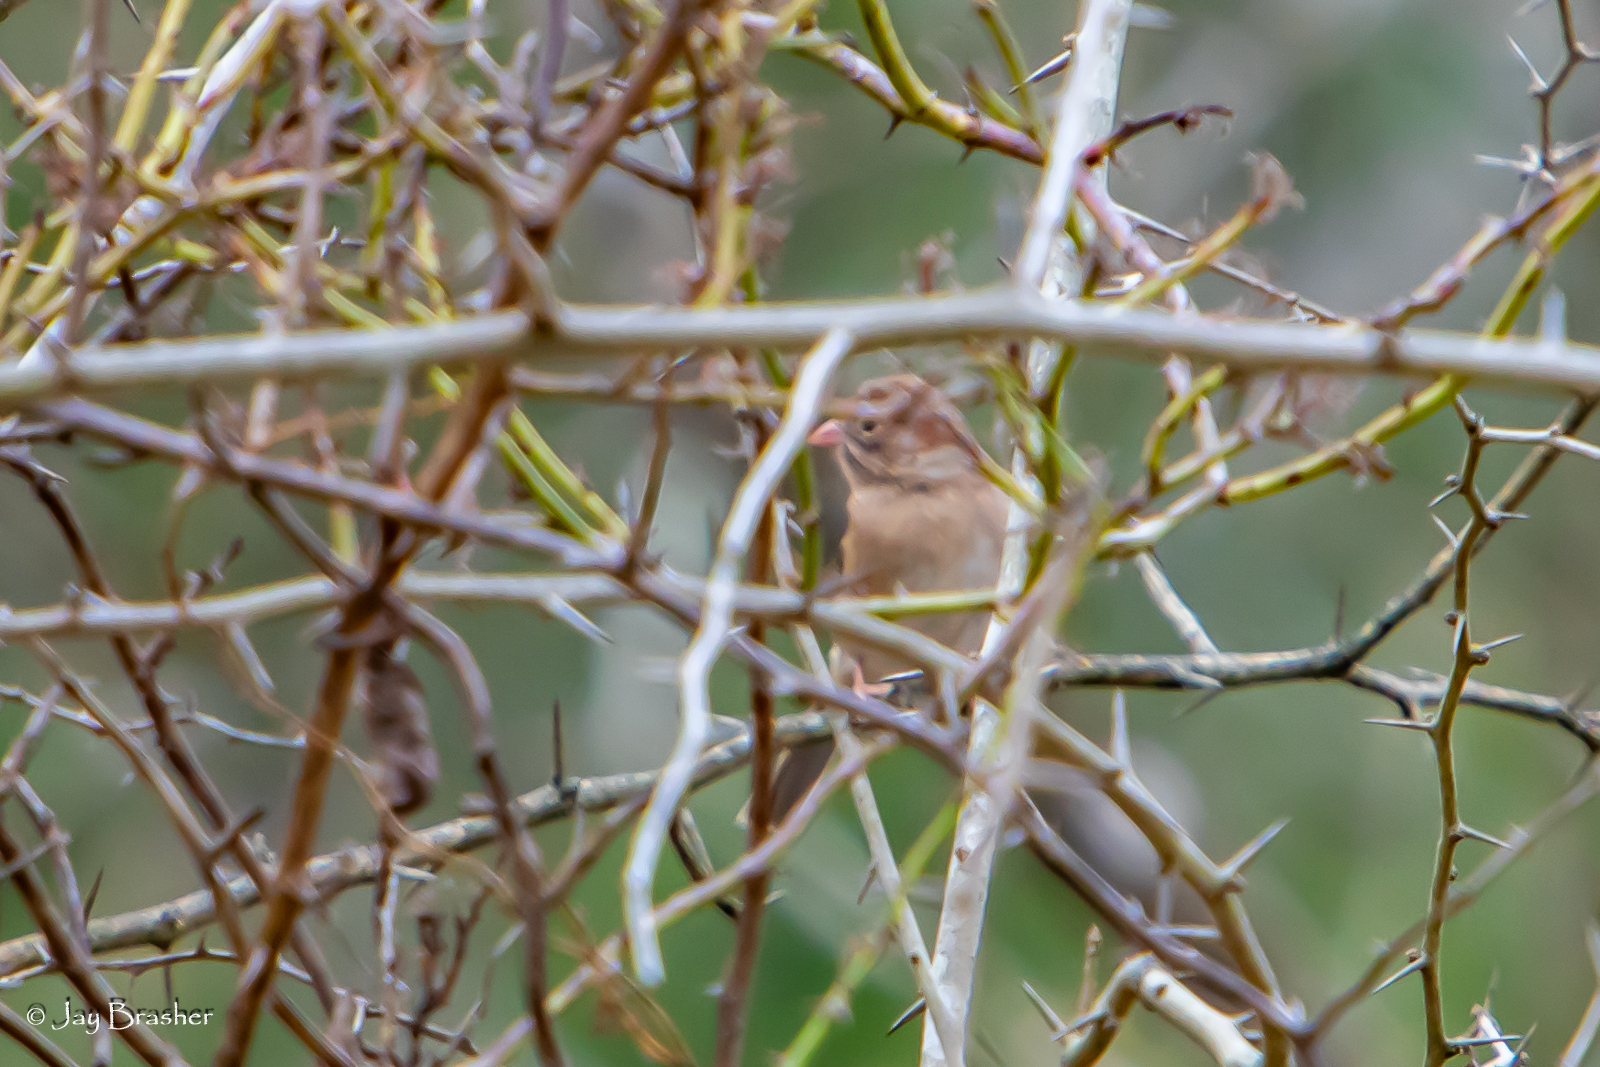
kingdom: Animalia
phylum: Chordata
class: Aves
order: Passeriformes
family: Passerellidae
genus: Spizella
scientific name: Spizella pusilla
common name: Field sparrow
